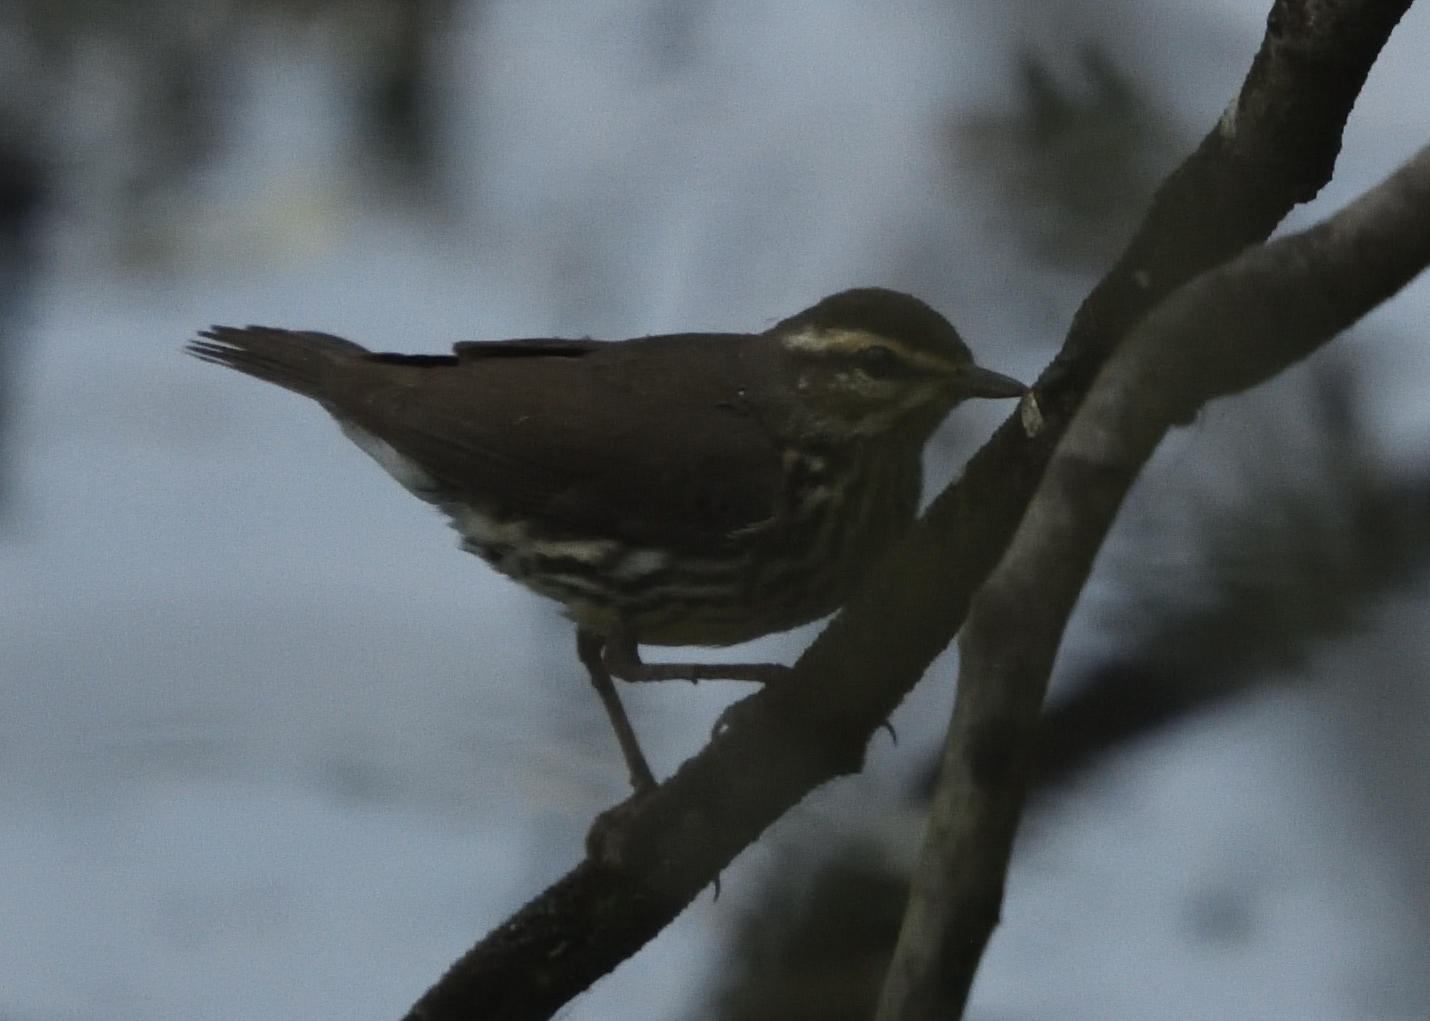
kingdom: Animalia
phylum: Chordata
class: Aves
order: Passeriformes
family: Parulidae
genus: Parkesia
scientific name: Parkesia noveboracensis
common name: Northern waterthrush
